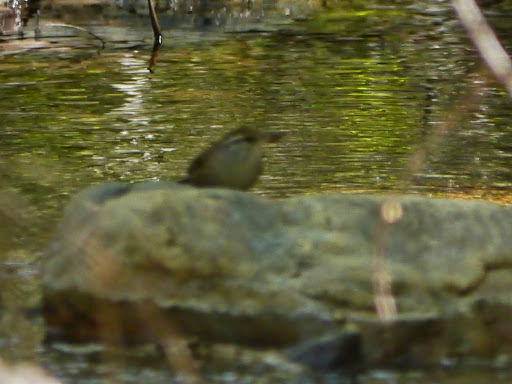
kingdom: Animalia
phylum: Chordata
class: Aves
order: Passeriformes
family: Troglodytidae
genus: Thryophilus
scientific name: Thryophilus sinaloa
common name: Sinaloa wren
